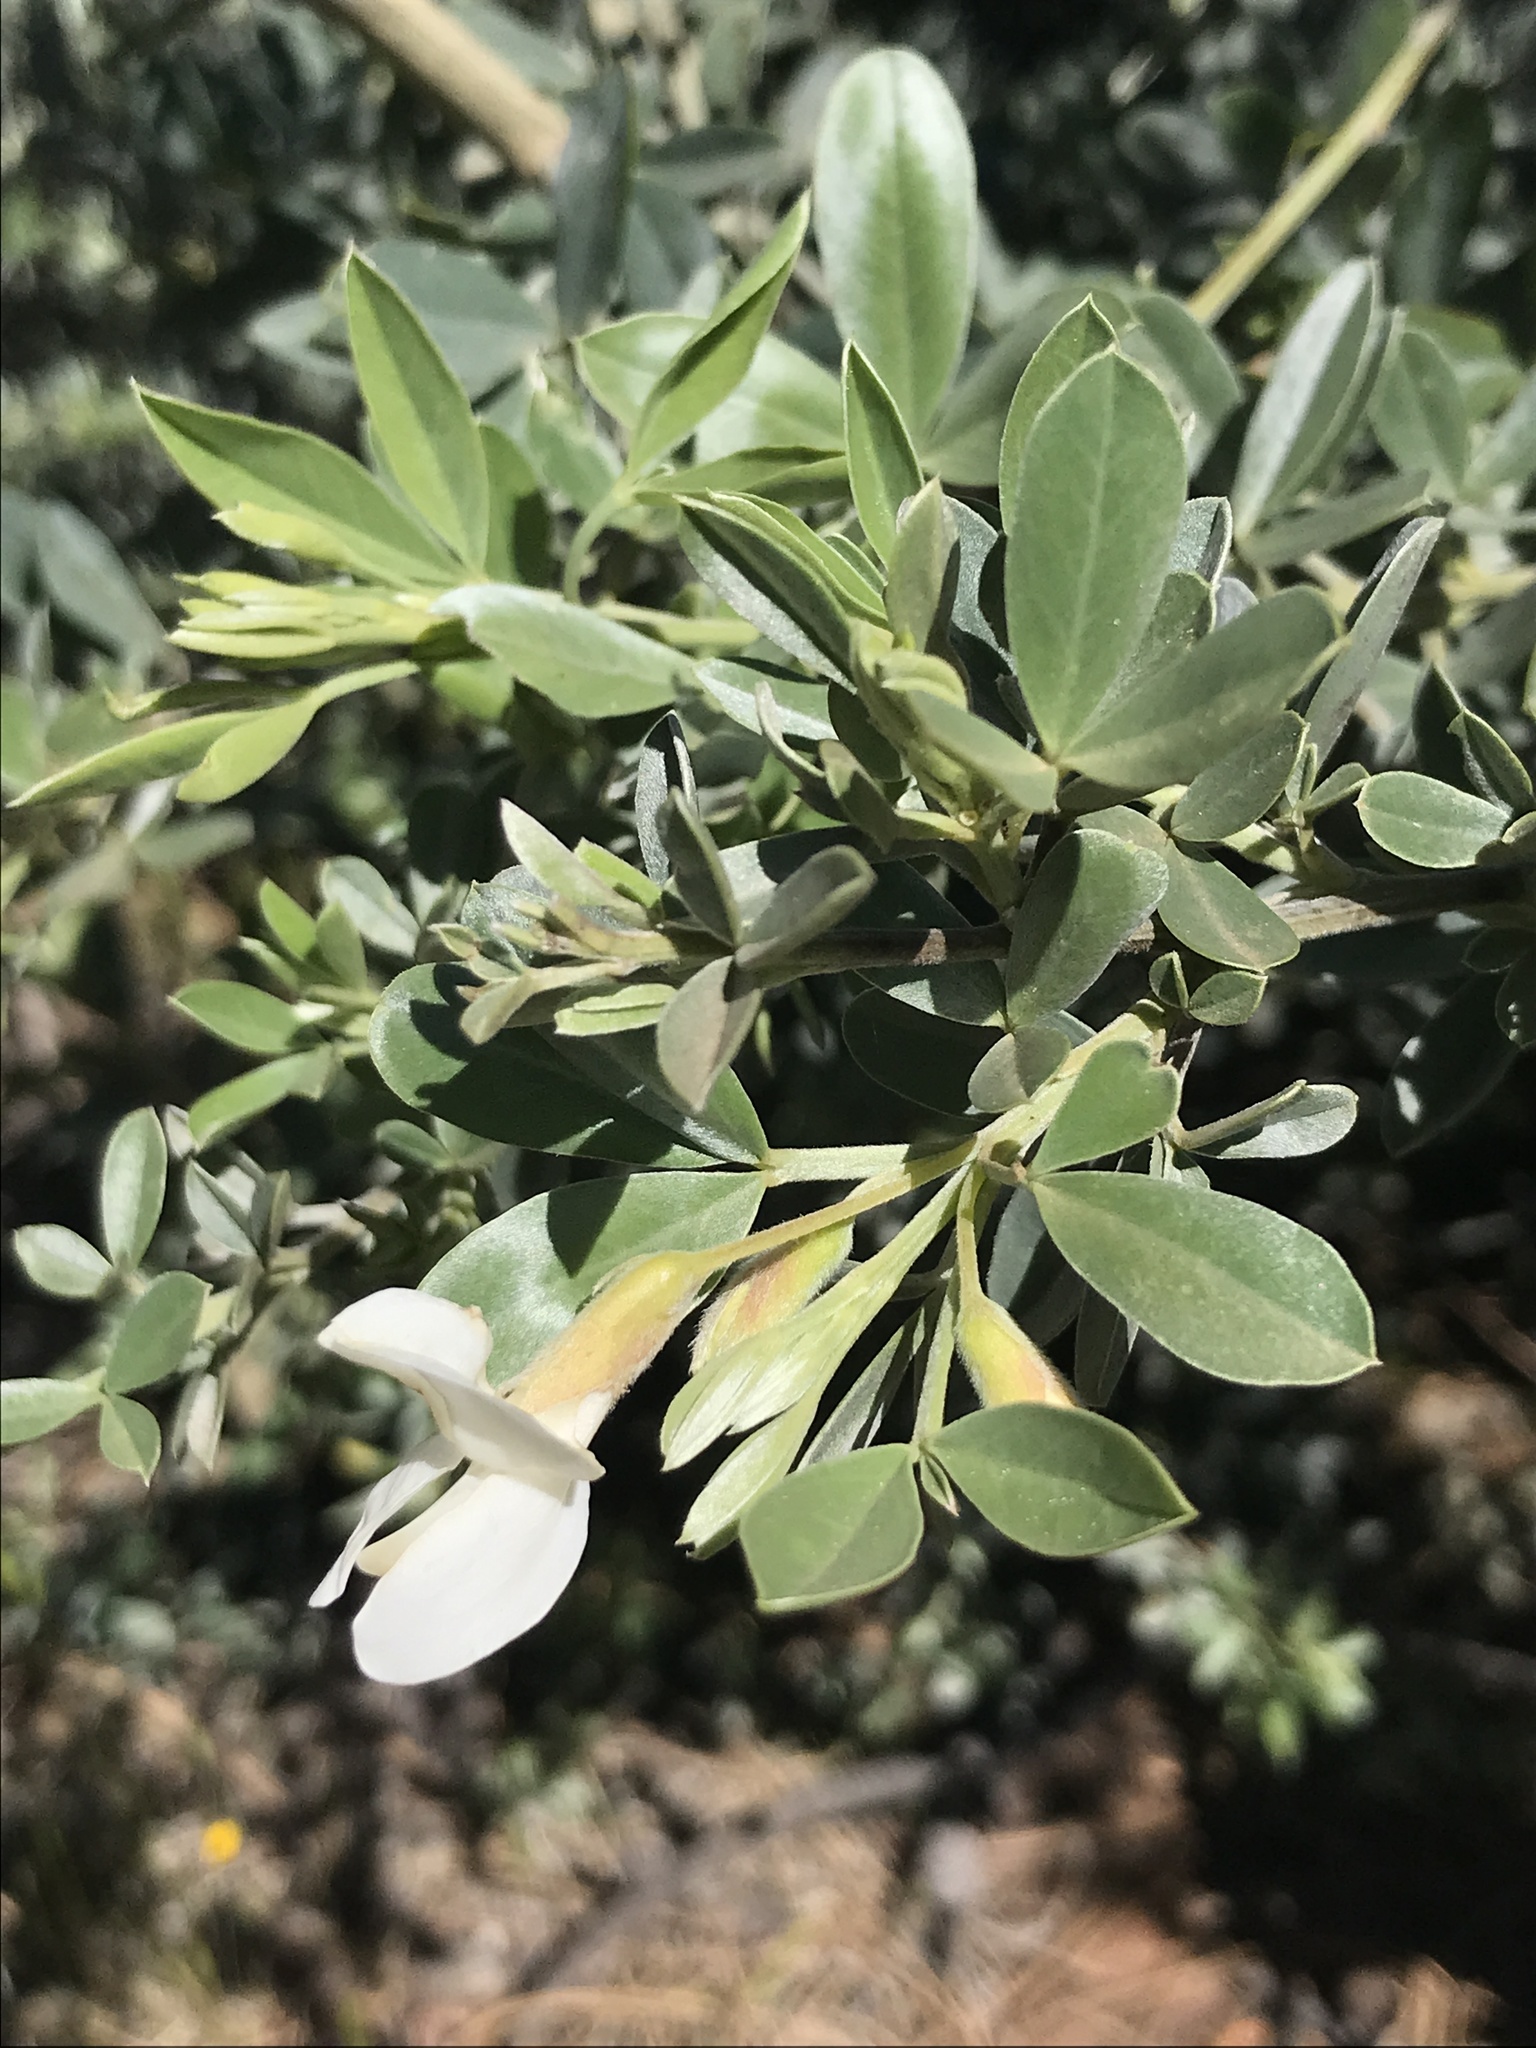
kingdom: Plantae
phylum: Tracheophyta
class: Magnoliopsida
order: Fabales
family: Fabaceae
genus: Chamaecytisus
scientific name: Chamaecytisus prolifer
